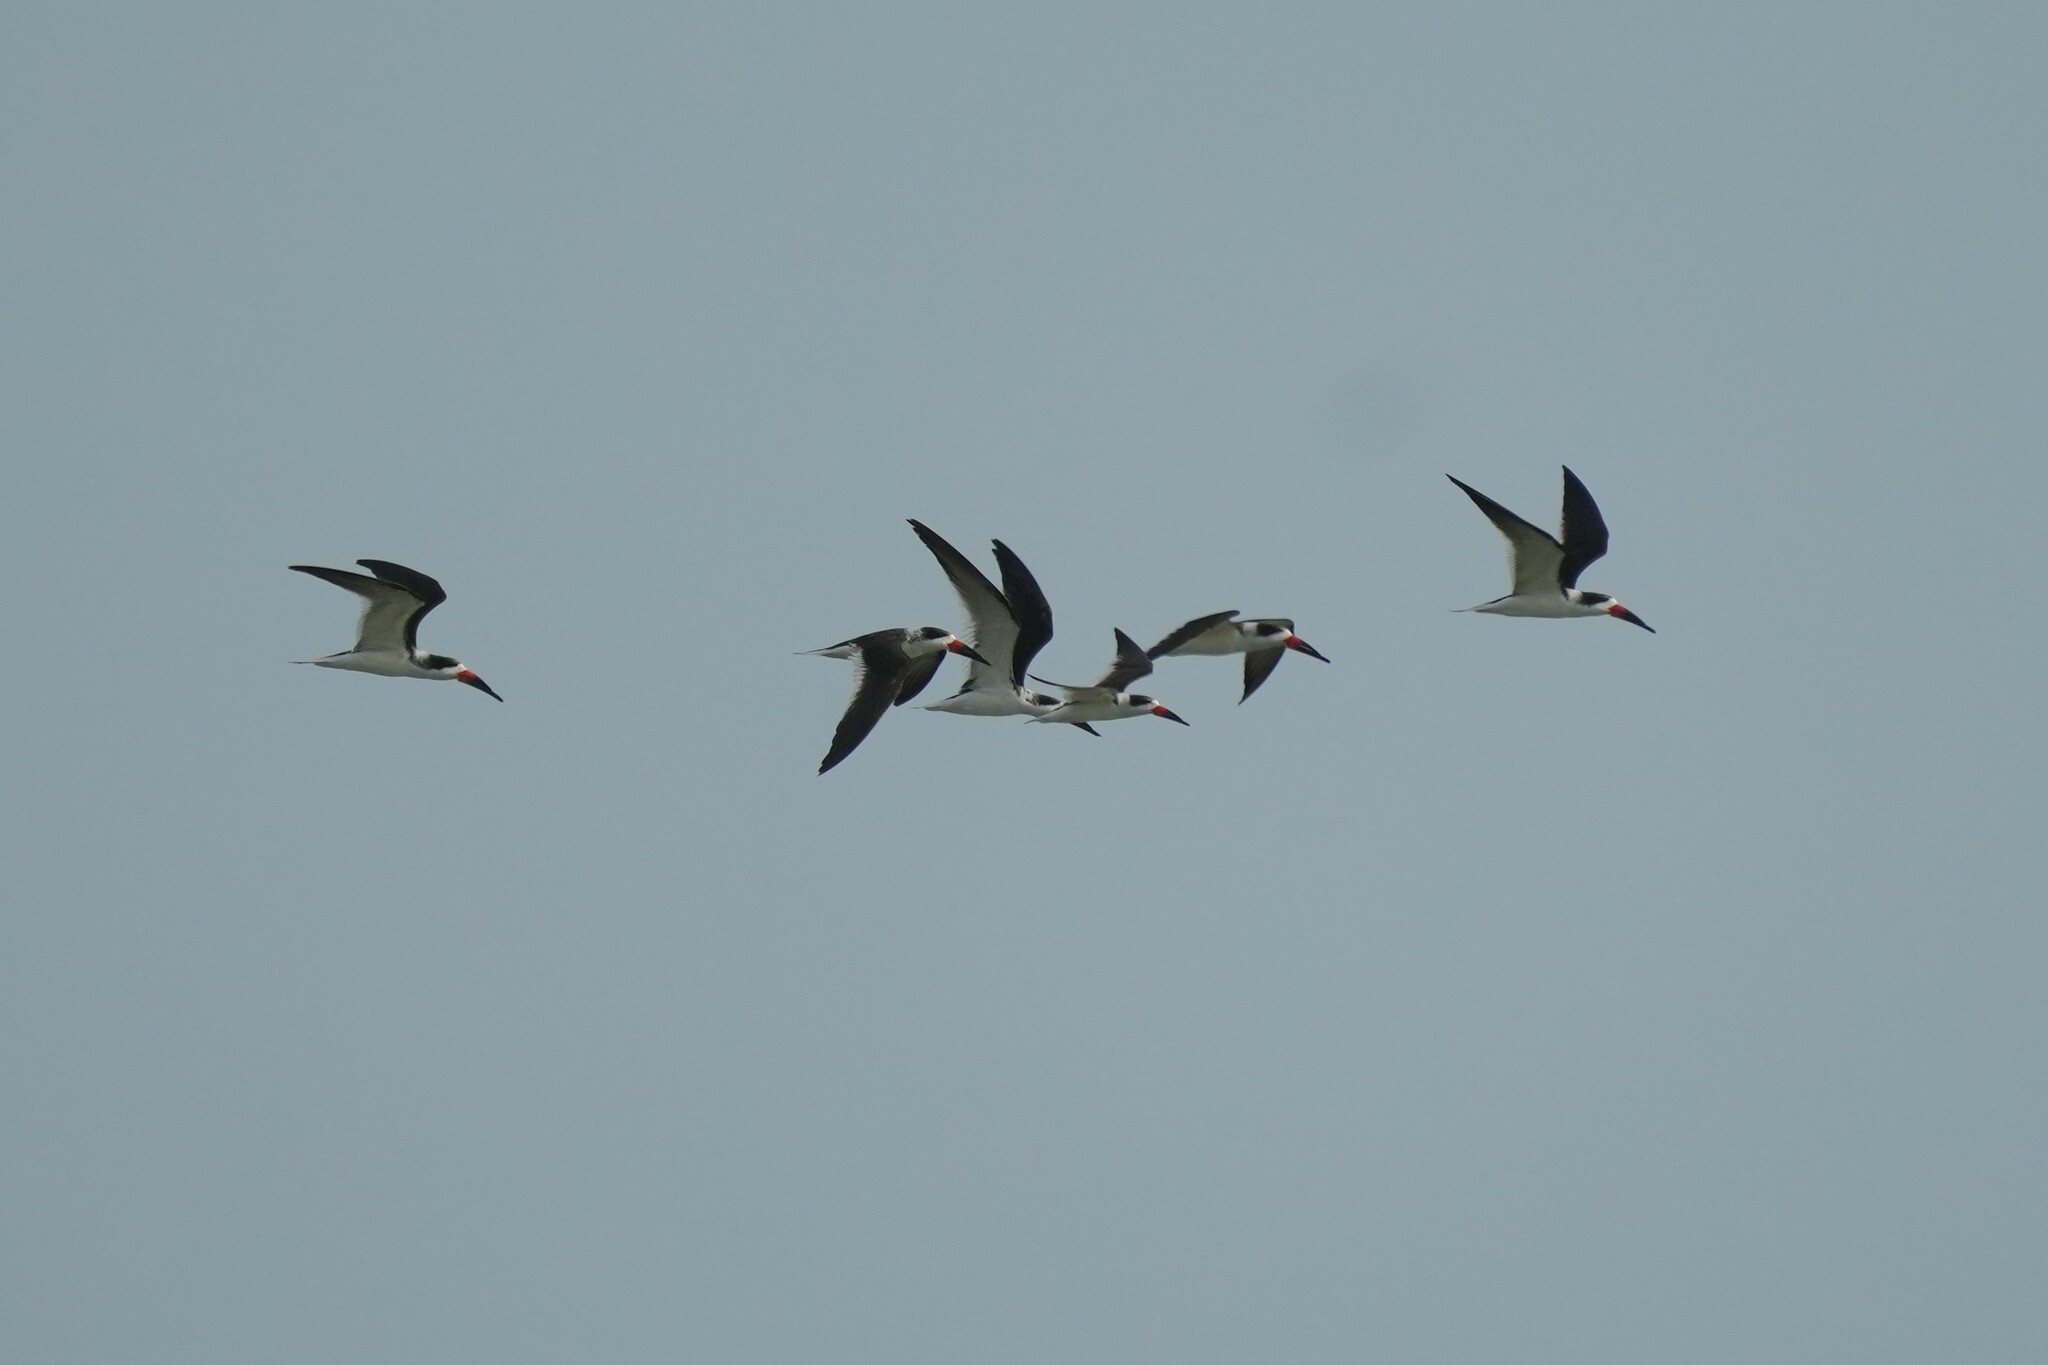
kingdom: Animalia
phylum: Chordata
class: Aves
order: Charadriiformes
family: Laridae
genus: Rynchops
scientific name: Rynchops niger
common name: Black skimmer
